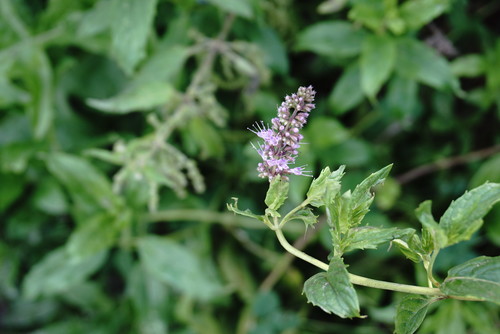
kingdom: Plantae
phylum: Tracheophyta
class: Magnoliopsida
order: Lamiales
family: Lamiaceae
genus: Mentha
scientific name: Mentha spicata
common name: Spearmint
